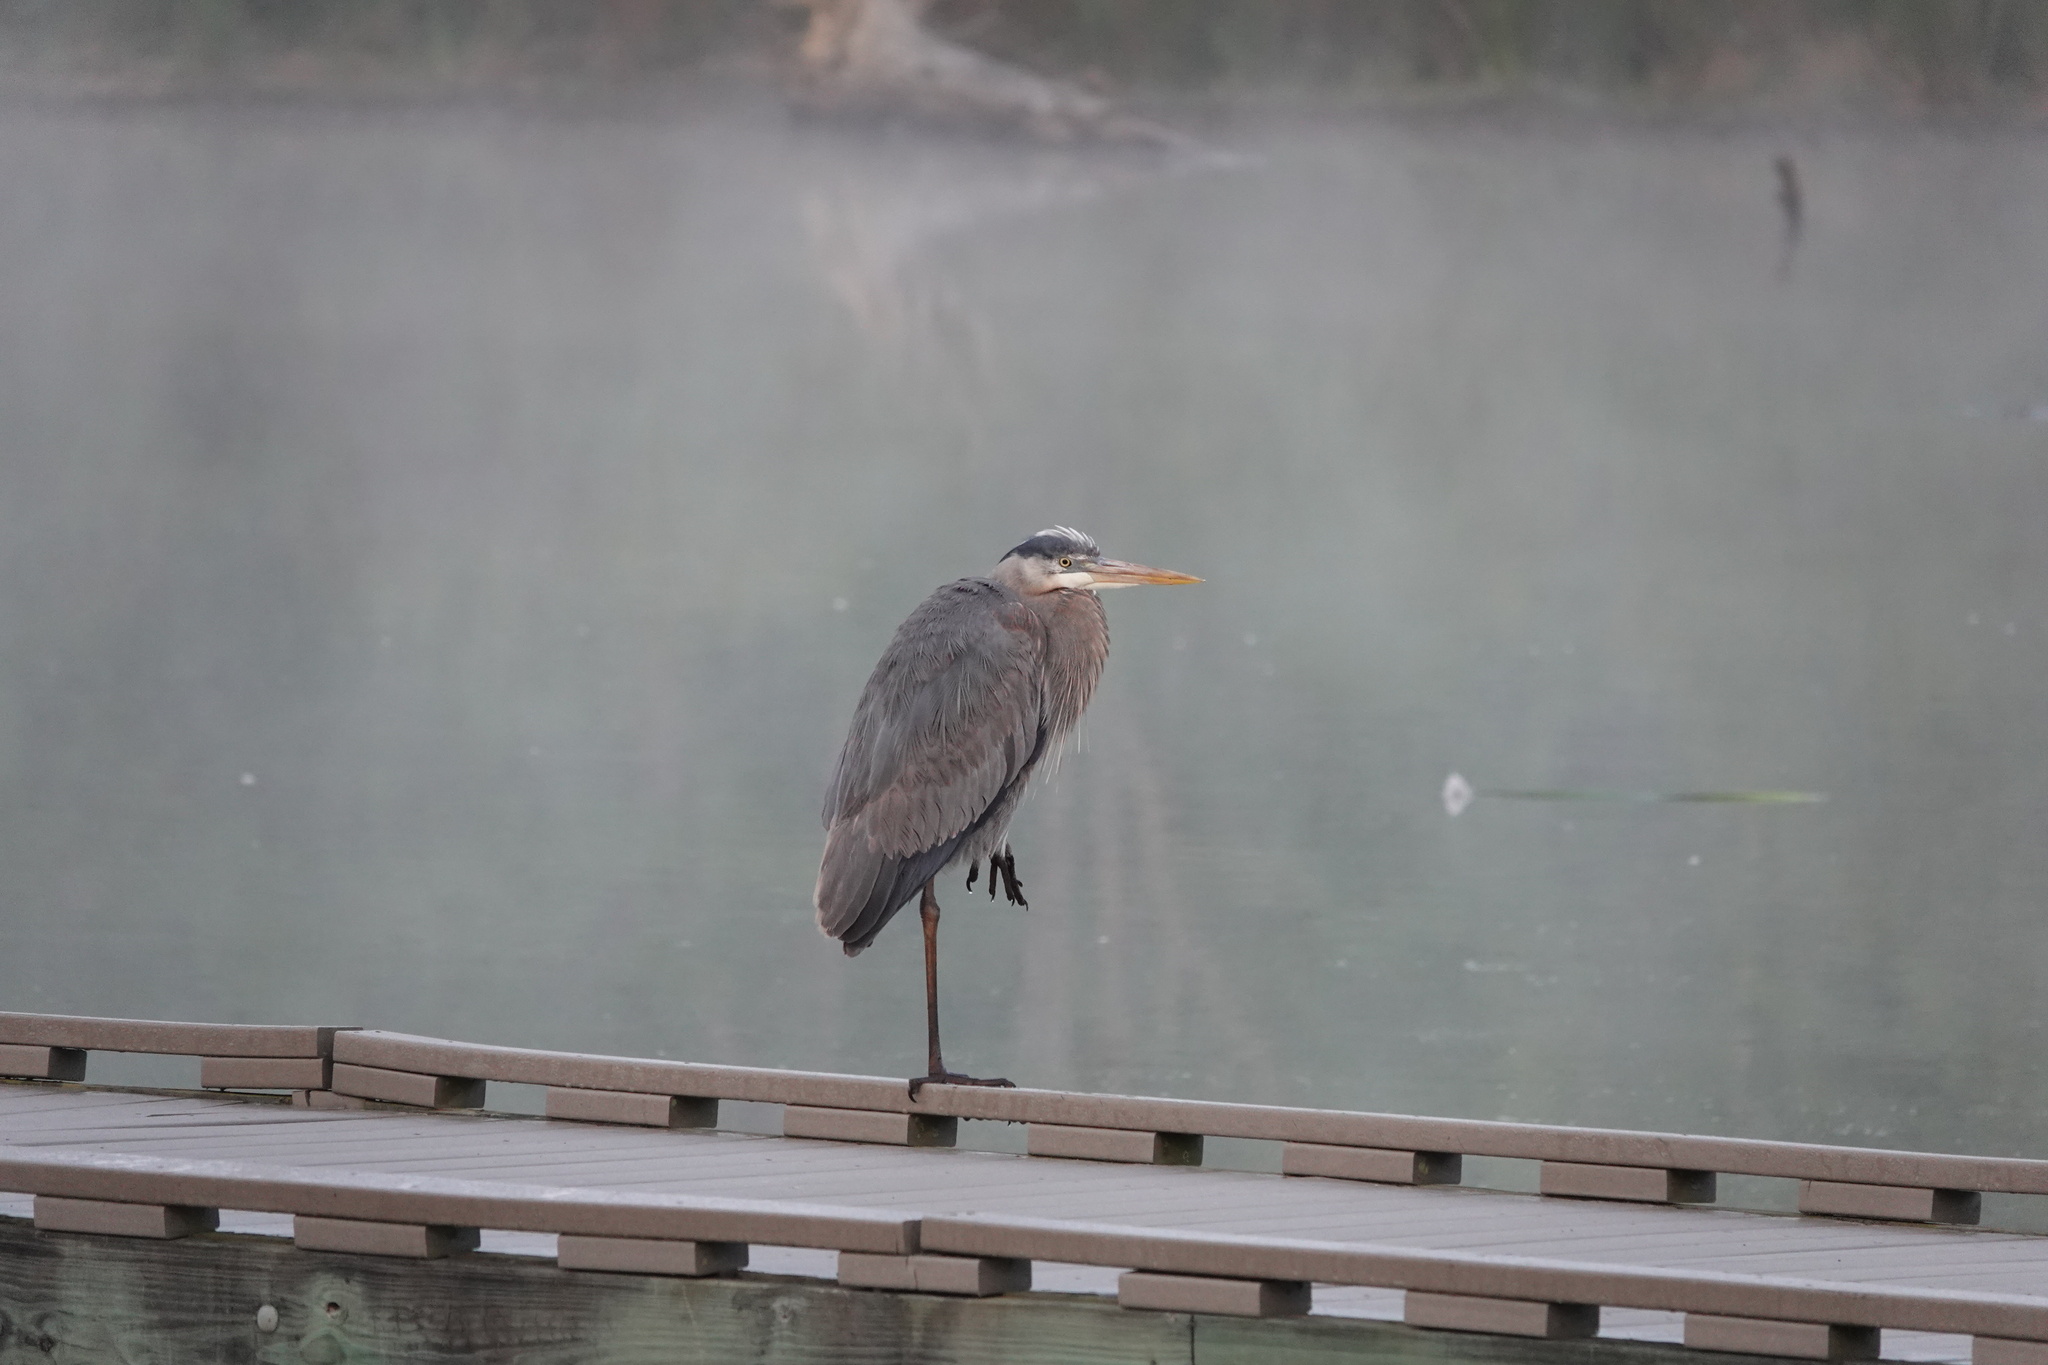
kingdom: Animalia
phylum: Chordata
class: Aves
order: Pelecaniformes
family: Ardeidae
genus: Ardea
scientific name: Ardea herodias
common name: Great blue heron
